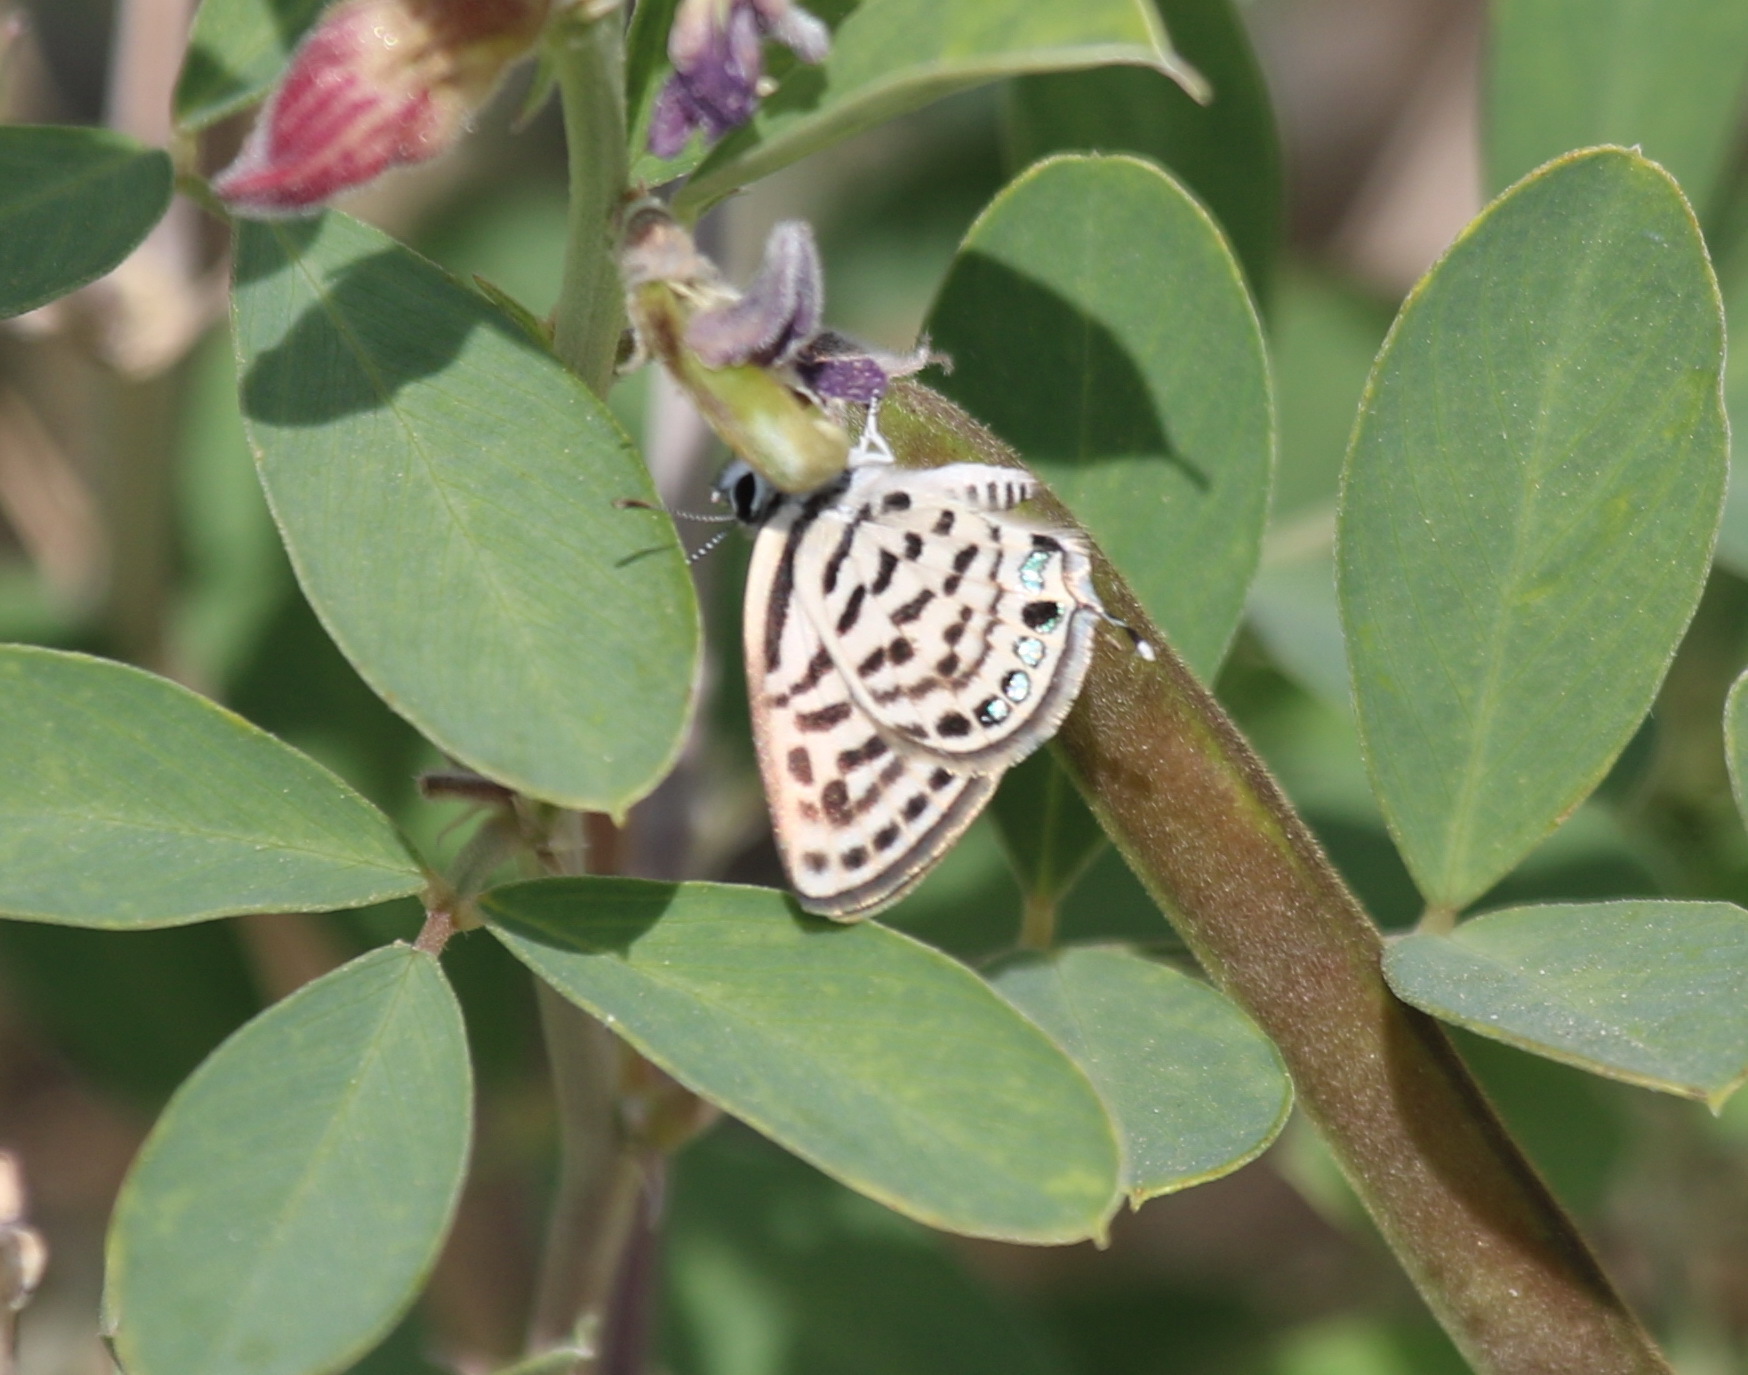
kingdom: Animalia
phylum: Arthropoda
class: Insecta
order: Lepidoptera
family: Lycaenidae
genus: Tarucus
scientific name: Tarucus rosacea
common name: Mediterranean pierrot
